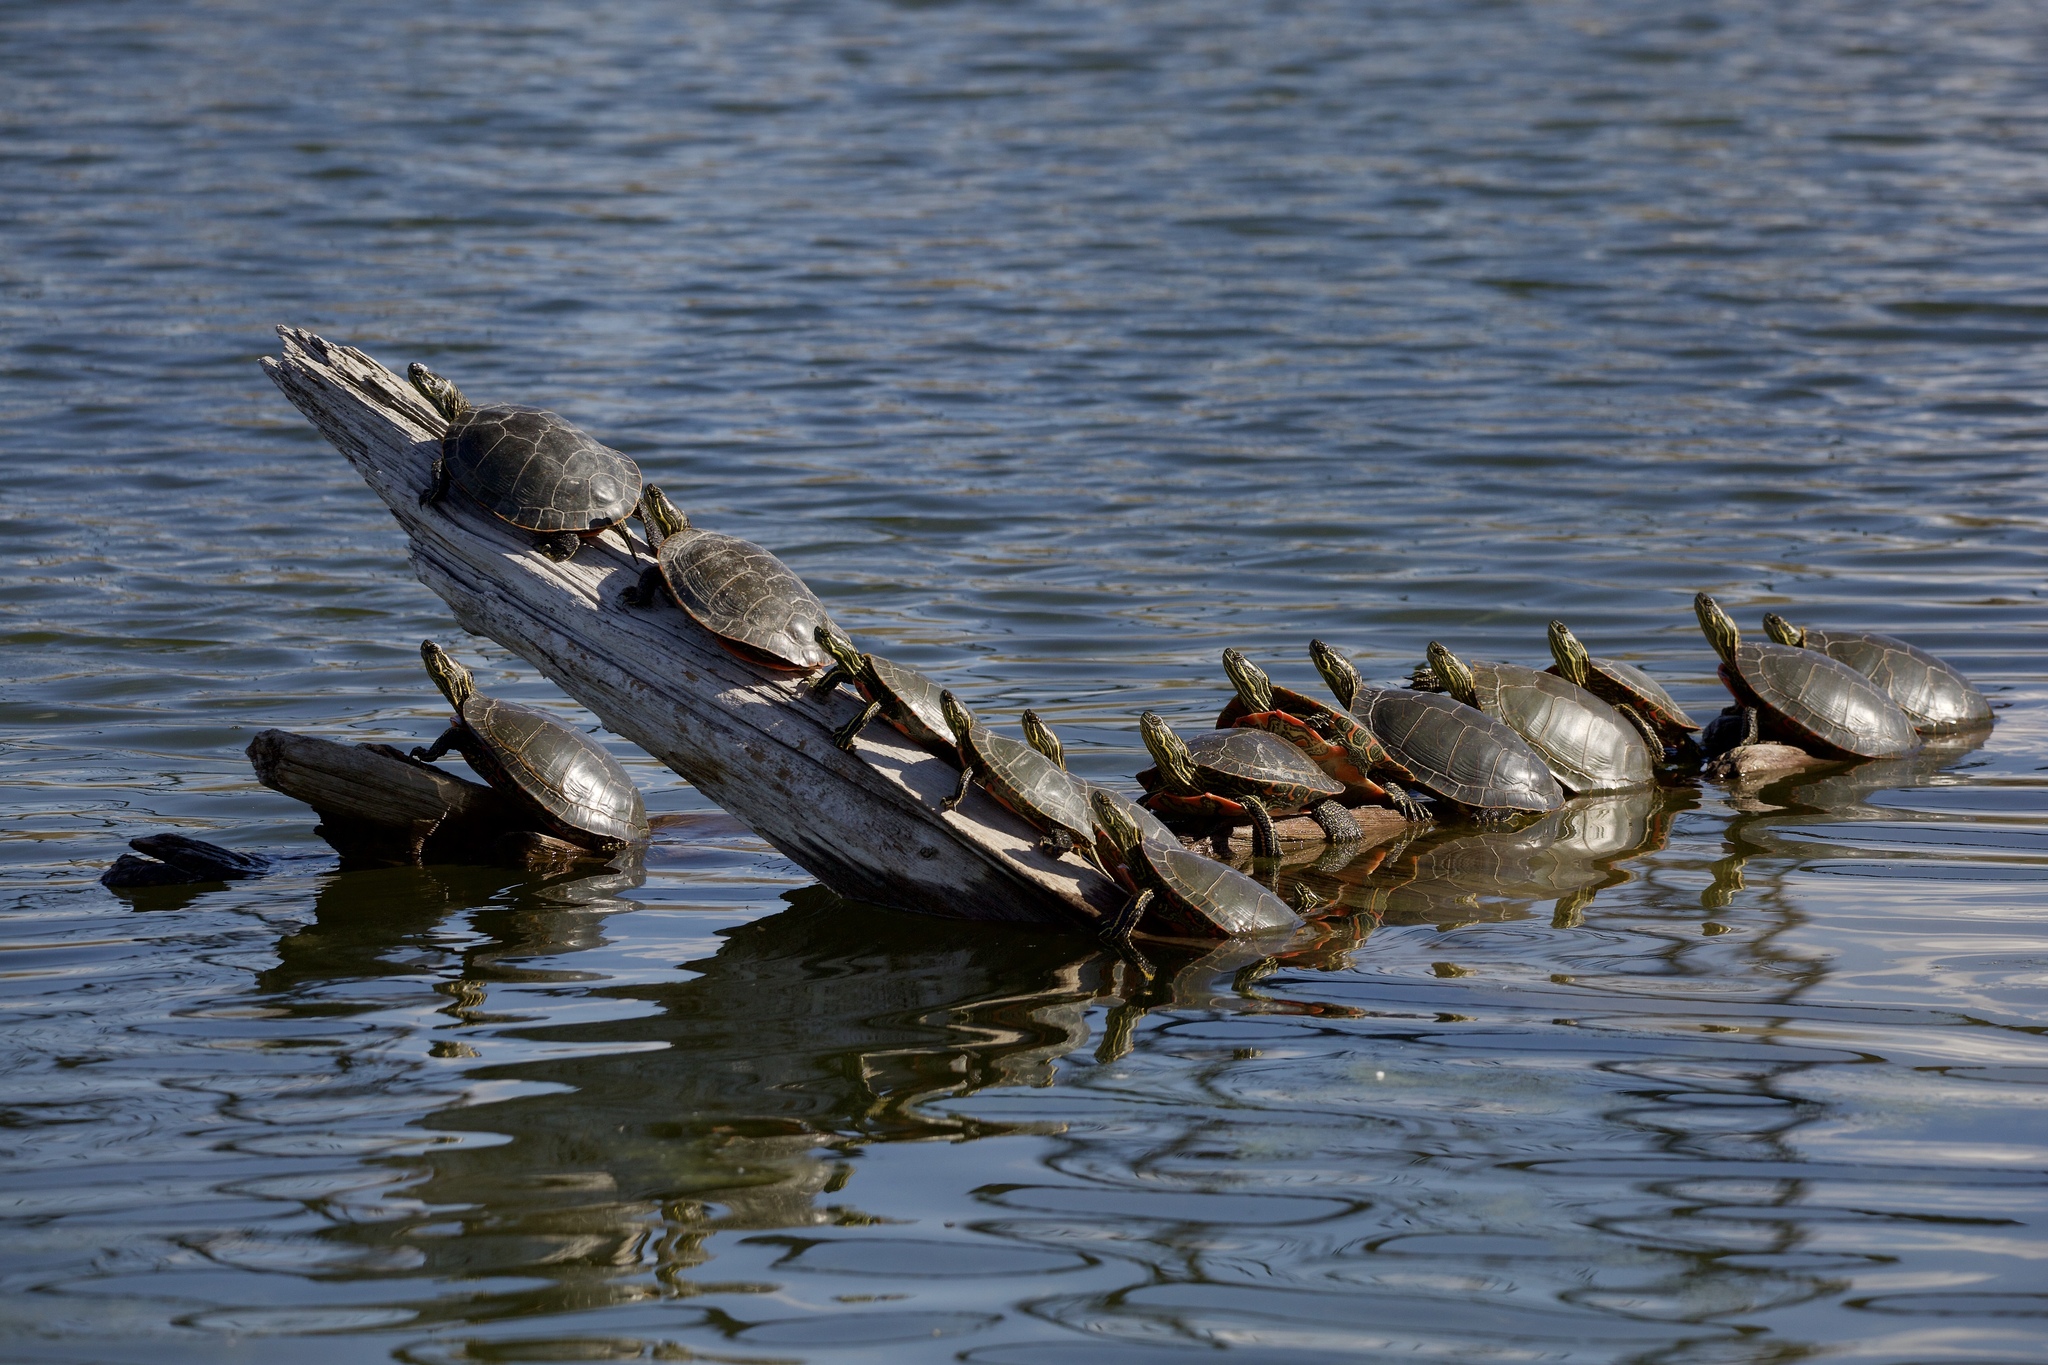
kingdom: Animalia
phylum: Chordata
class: Testudines
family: Emydidae
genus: Chrysemys
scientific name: Chrysemys picta
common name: Painted turtle
